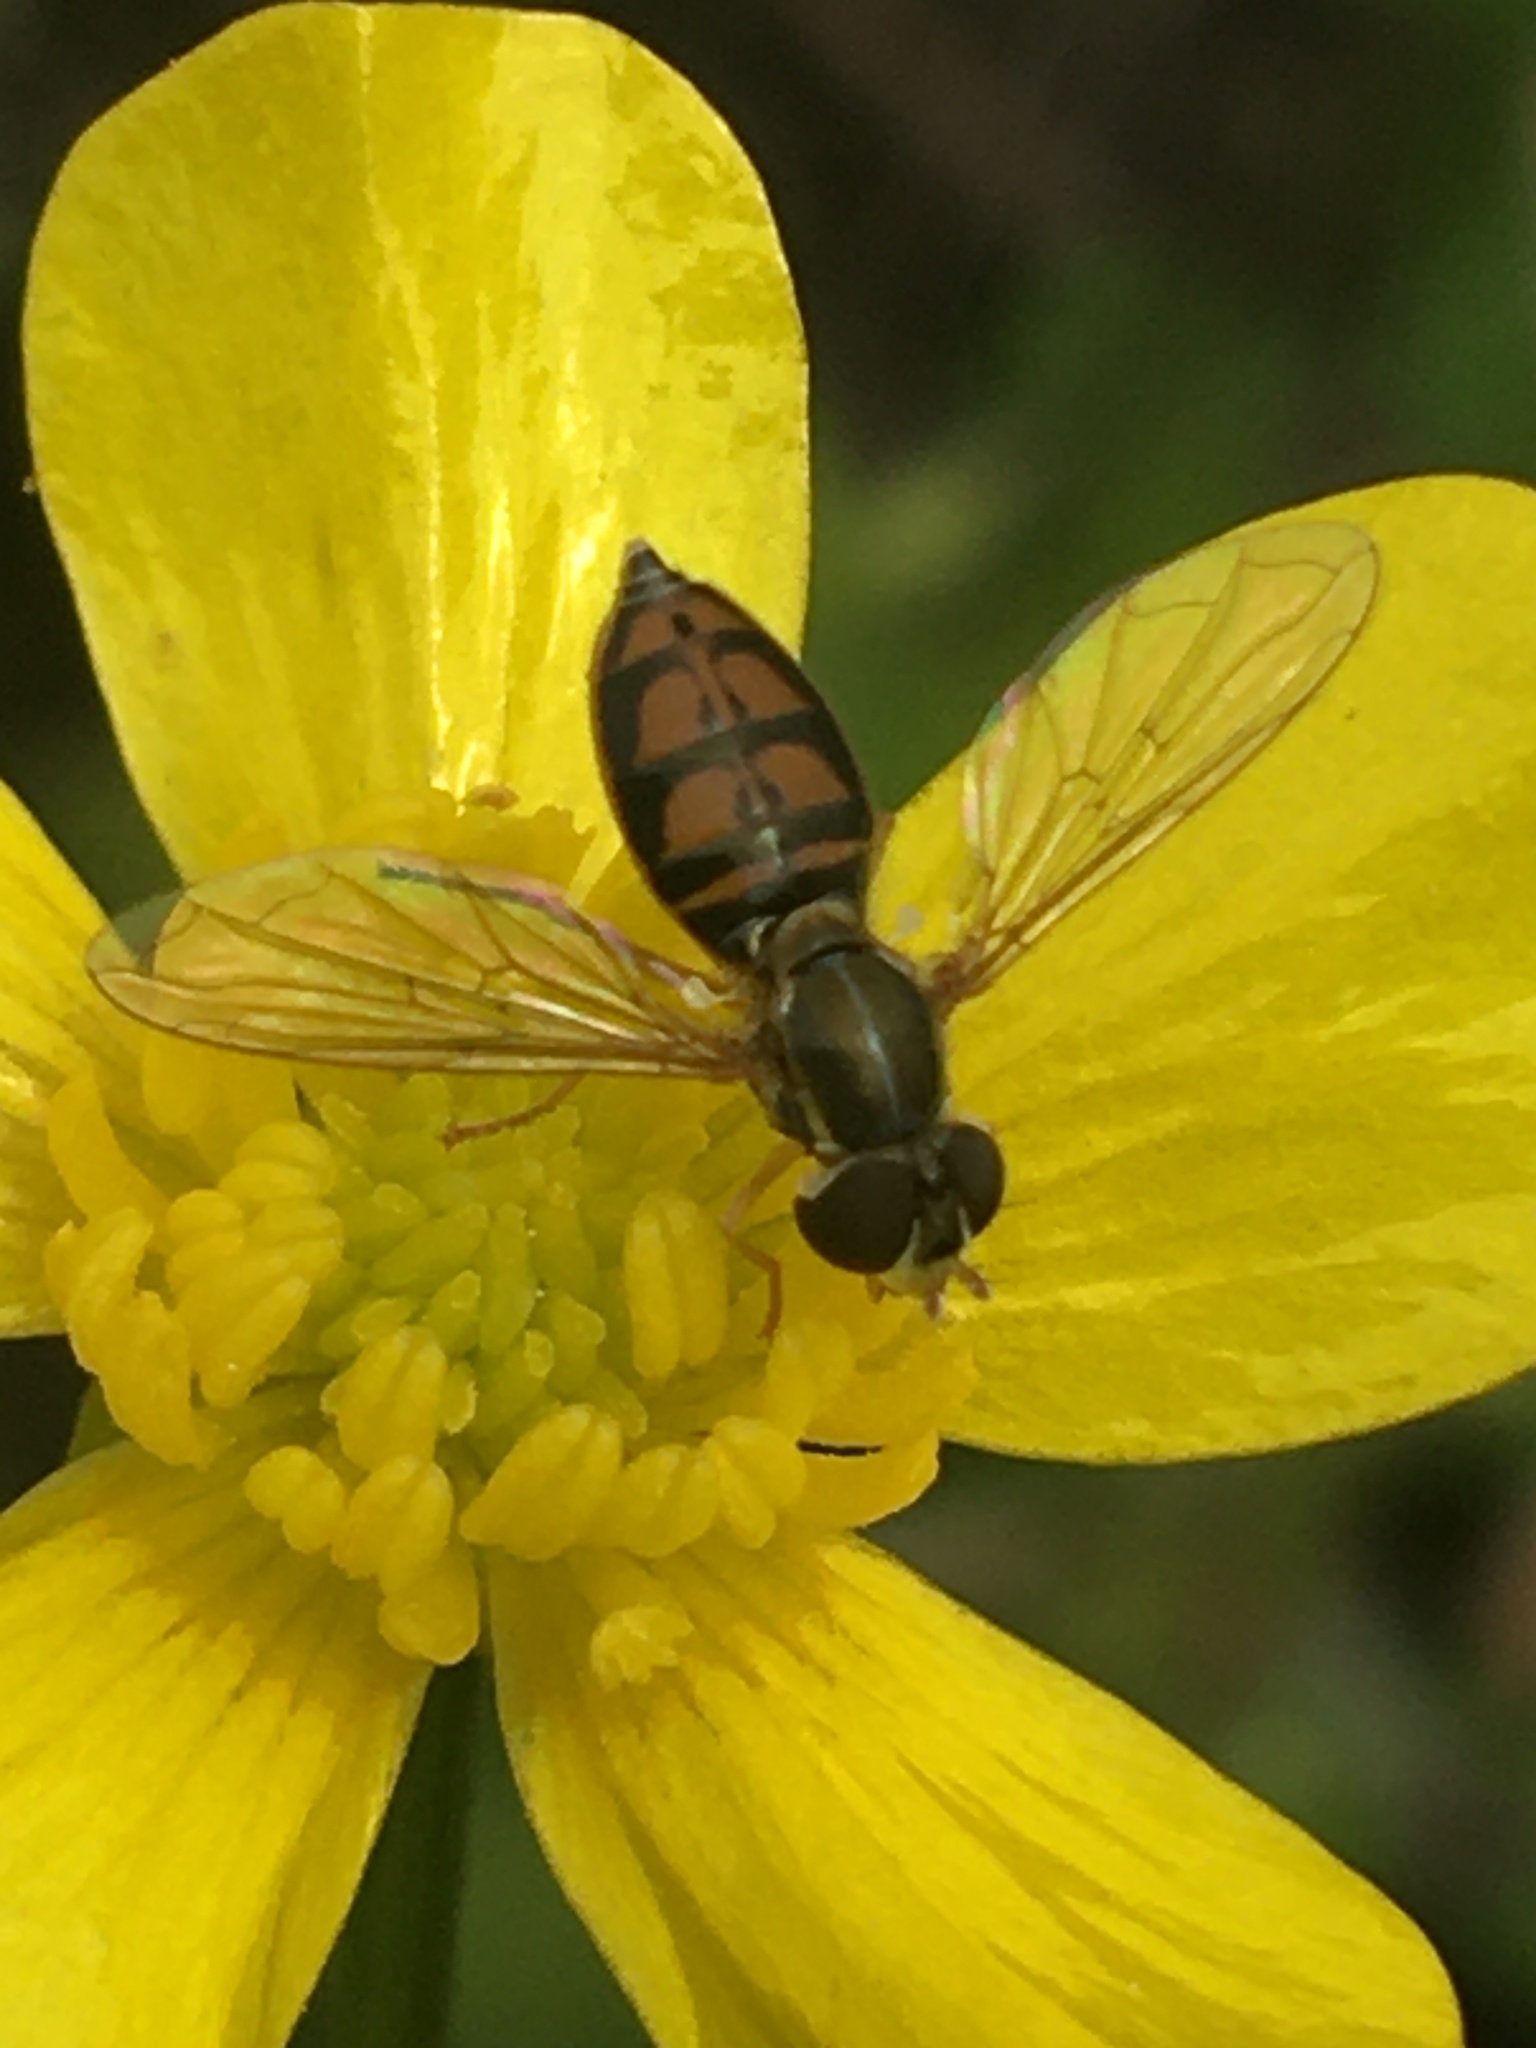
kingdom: Animalia
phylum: Arthropoda
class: Insecta
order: Diptera
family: Syrphidae
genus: Toxomerus
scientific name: Toxomerus marginatus
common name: Syrphid fly
